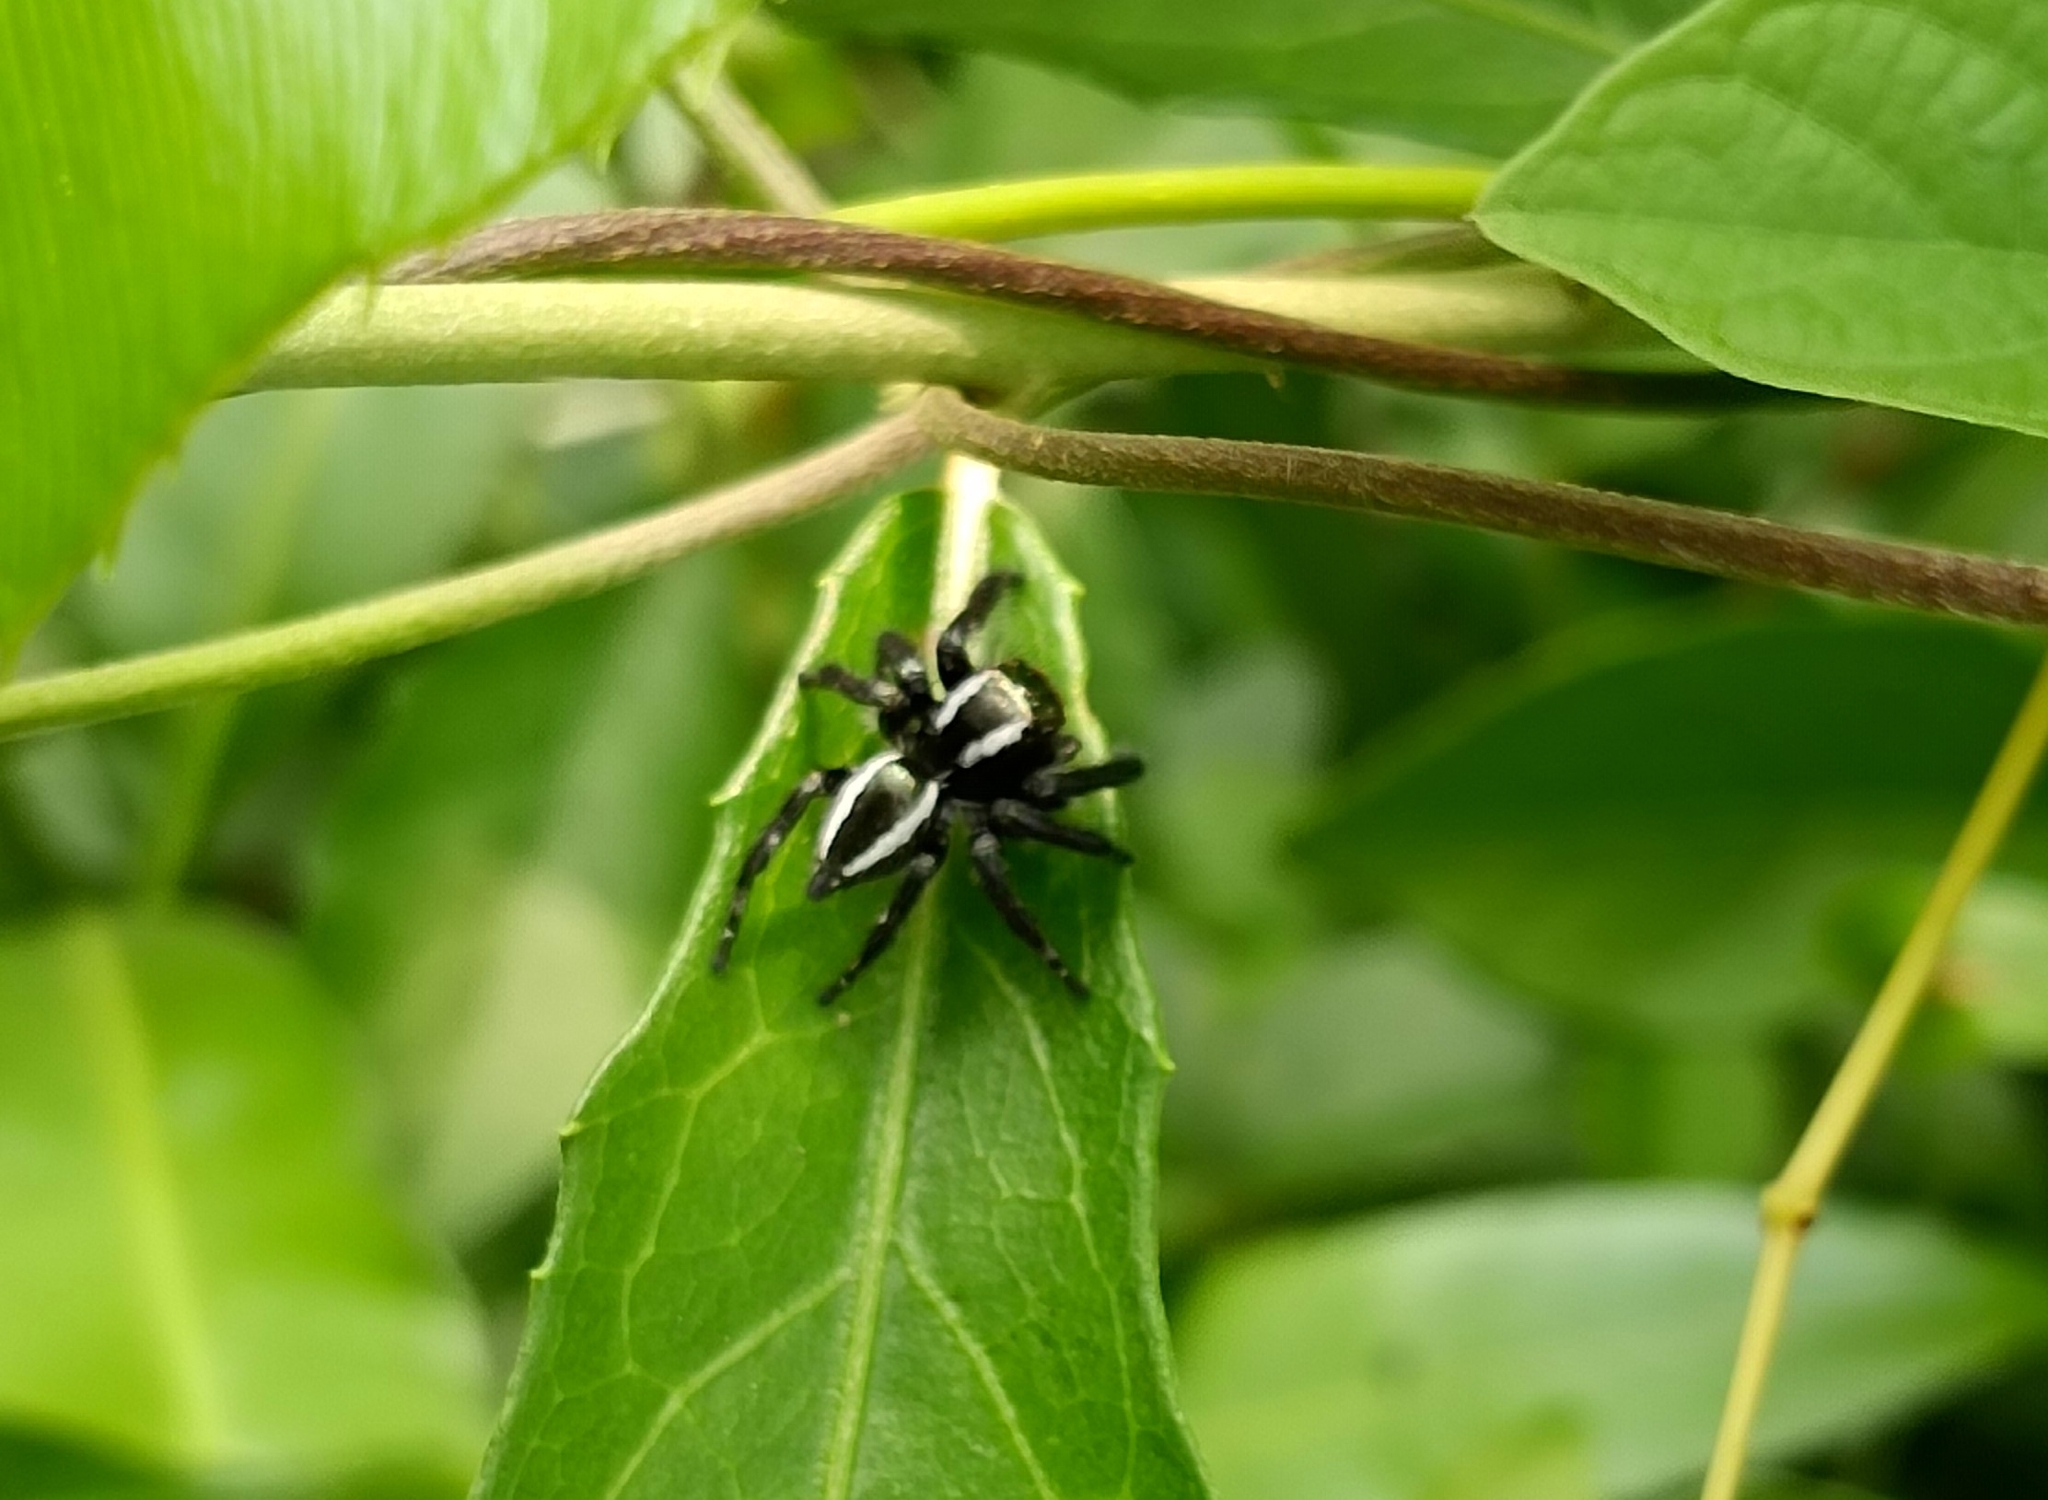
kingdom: Animalia
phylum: Arthropoda
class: Arachnida
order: Araneae
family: Salticidae
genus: Carrhotus
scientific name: Carrhotus viduus
